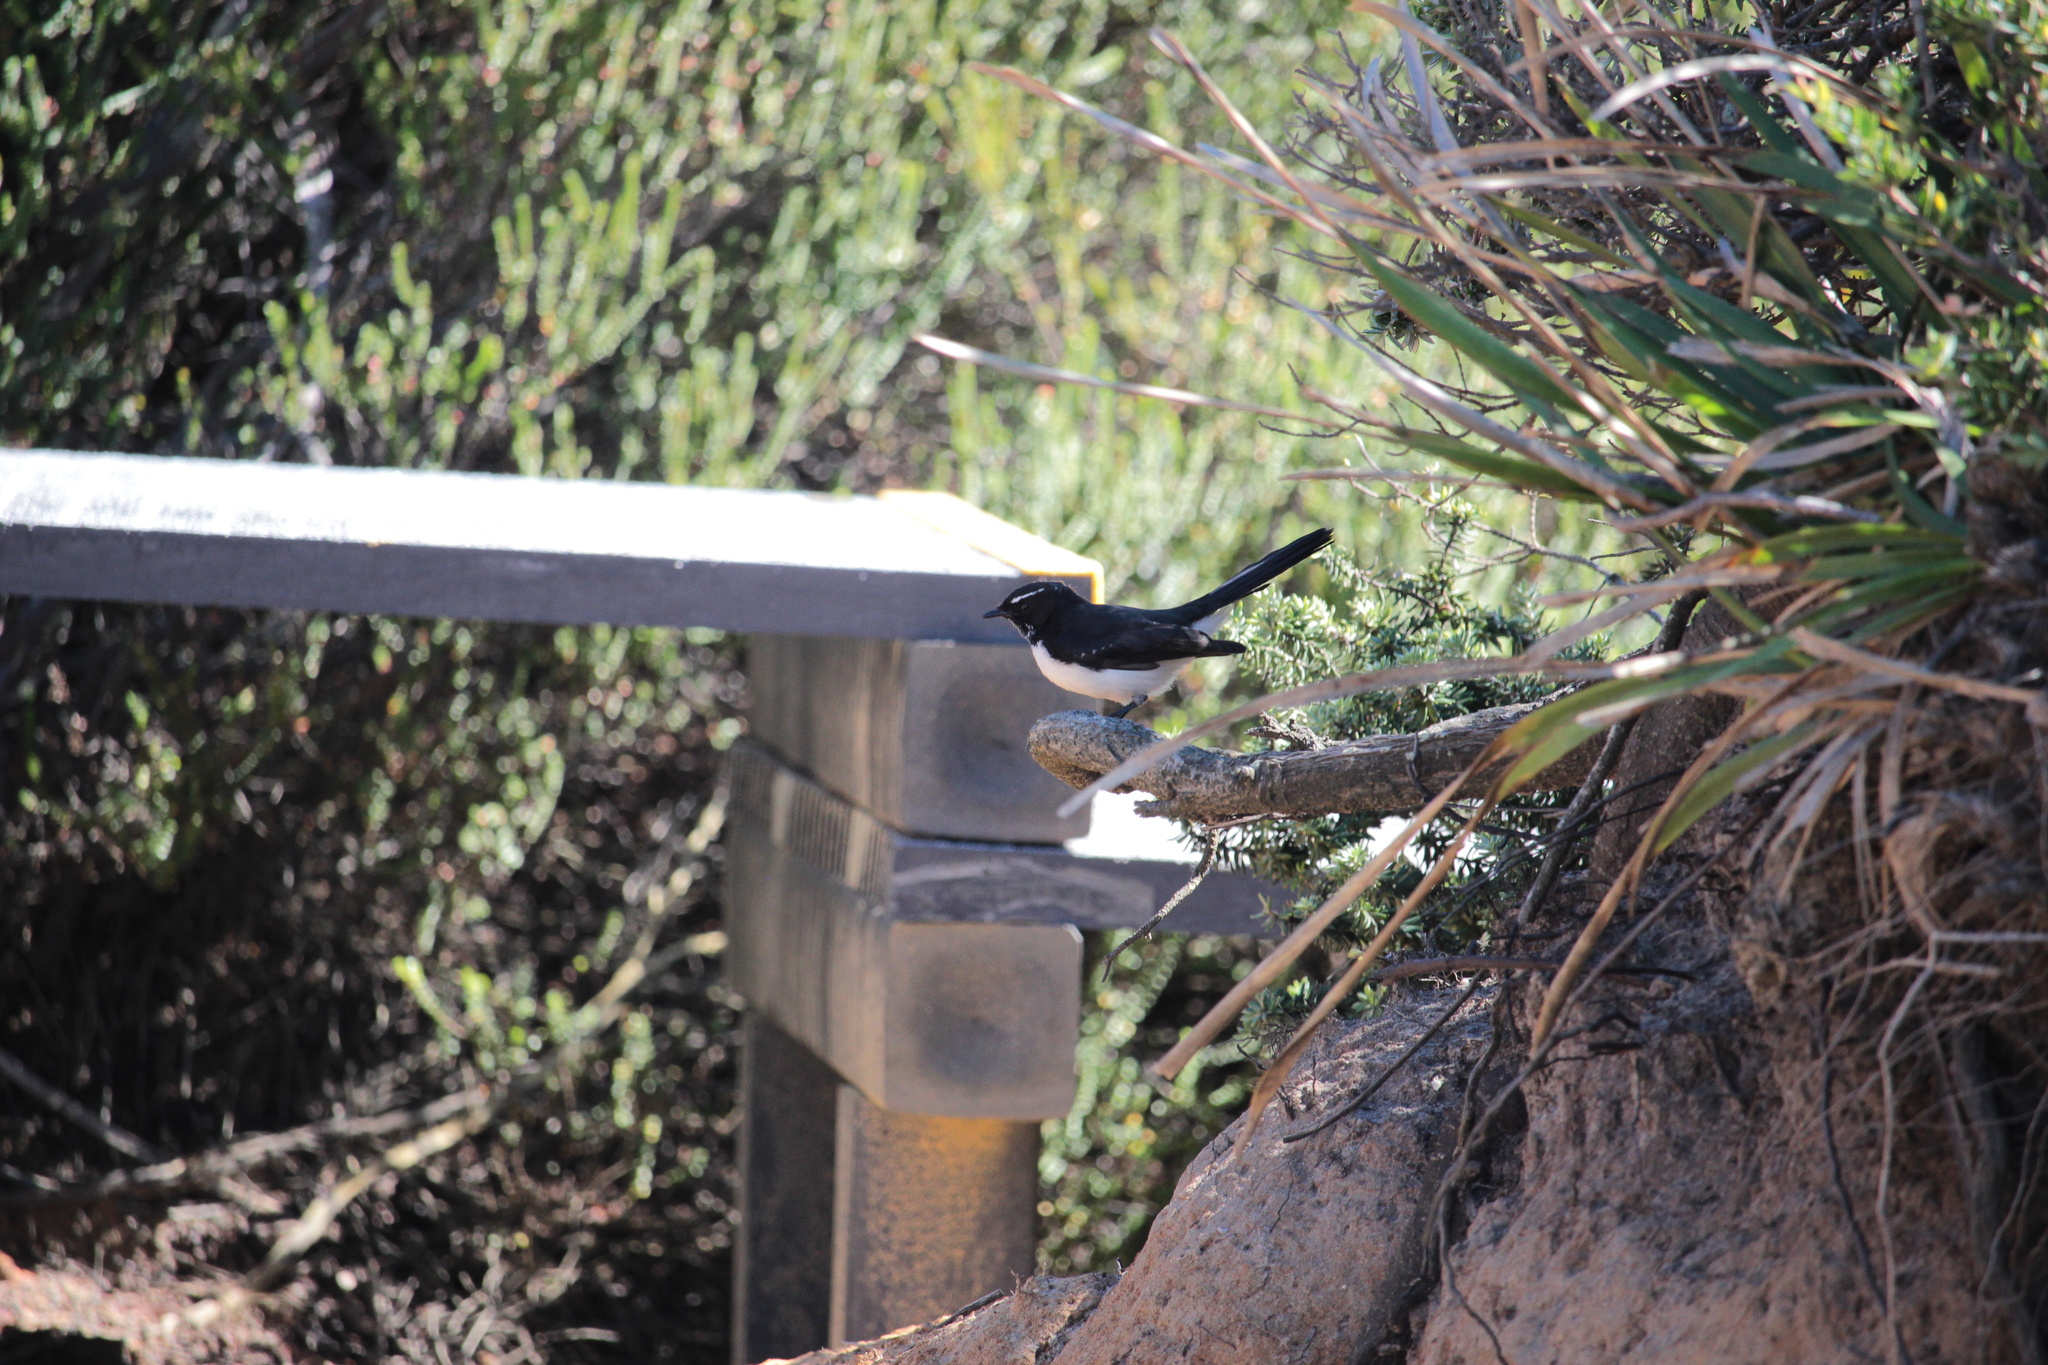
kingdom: Animalia
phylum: Chordata
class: Aves
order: Passeriformes
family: Rhipiduridae
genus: Rhipidura
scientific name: Rhipidura leucophrys
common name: Willie wagtail
